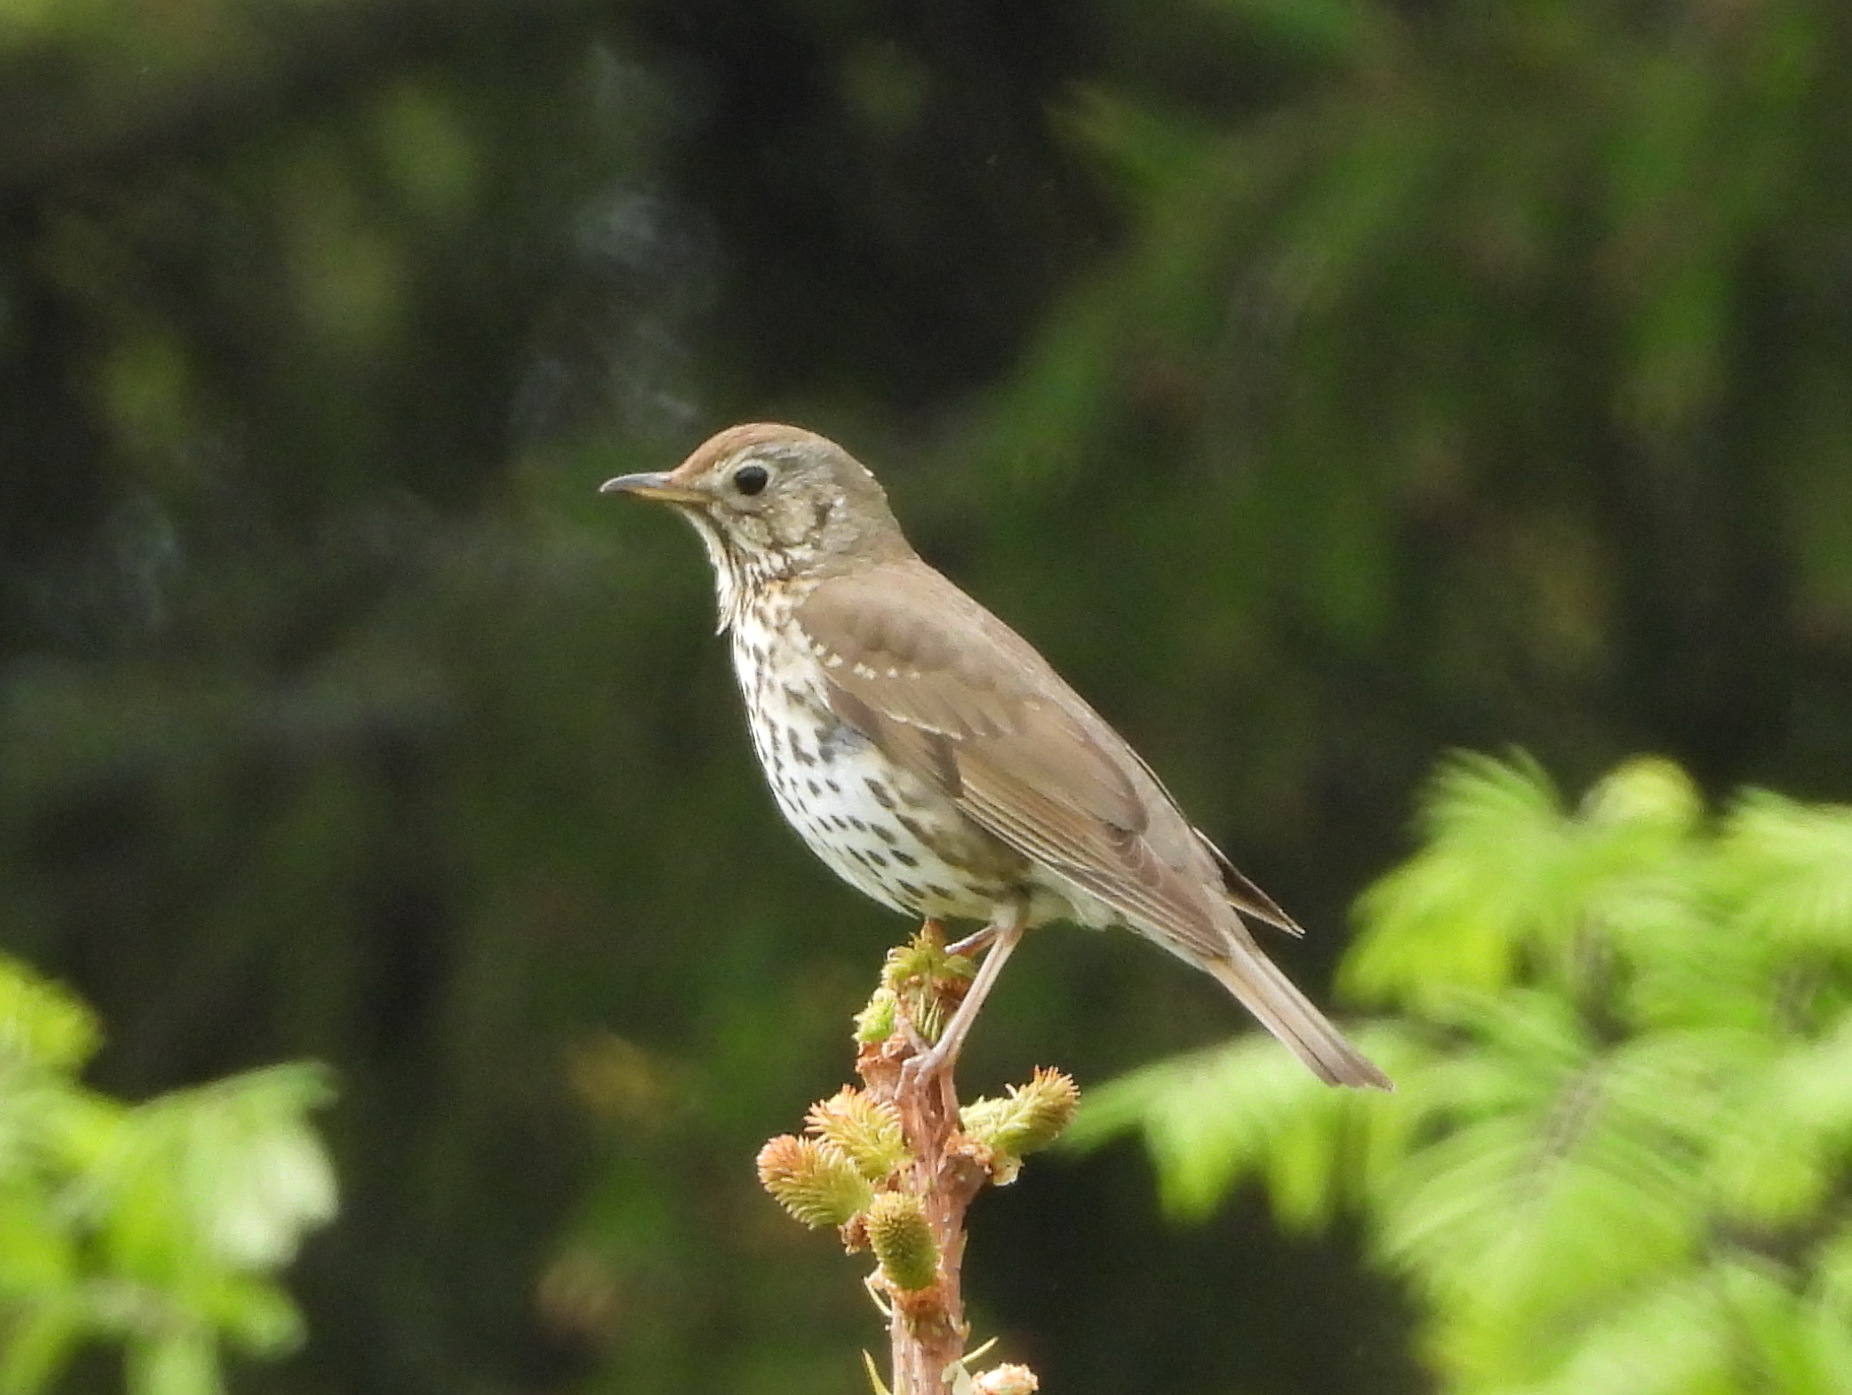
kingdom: Animalia
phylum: Chordata
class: Aves
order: Passeriformes
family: Turdidae
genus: Turdus
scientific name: Turdus philomelos
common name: Song thrush
